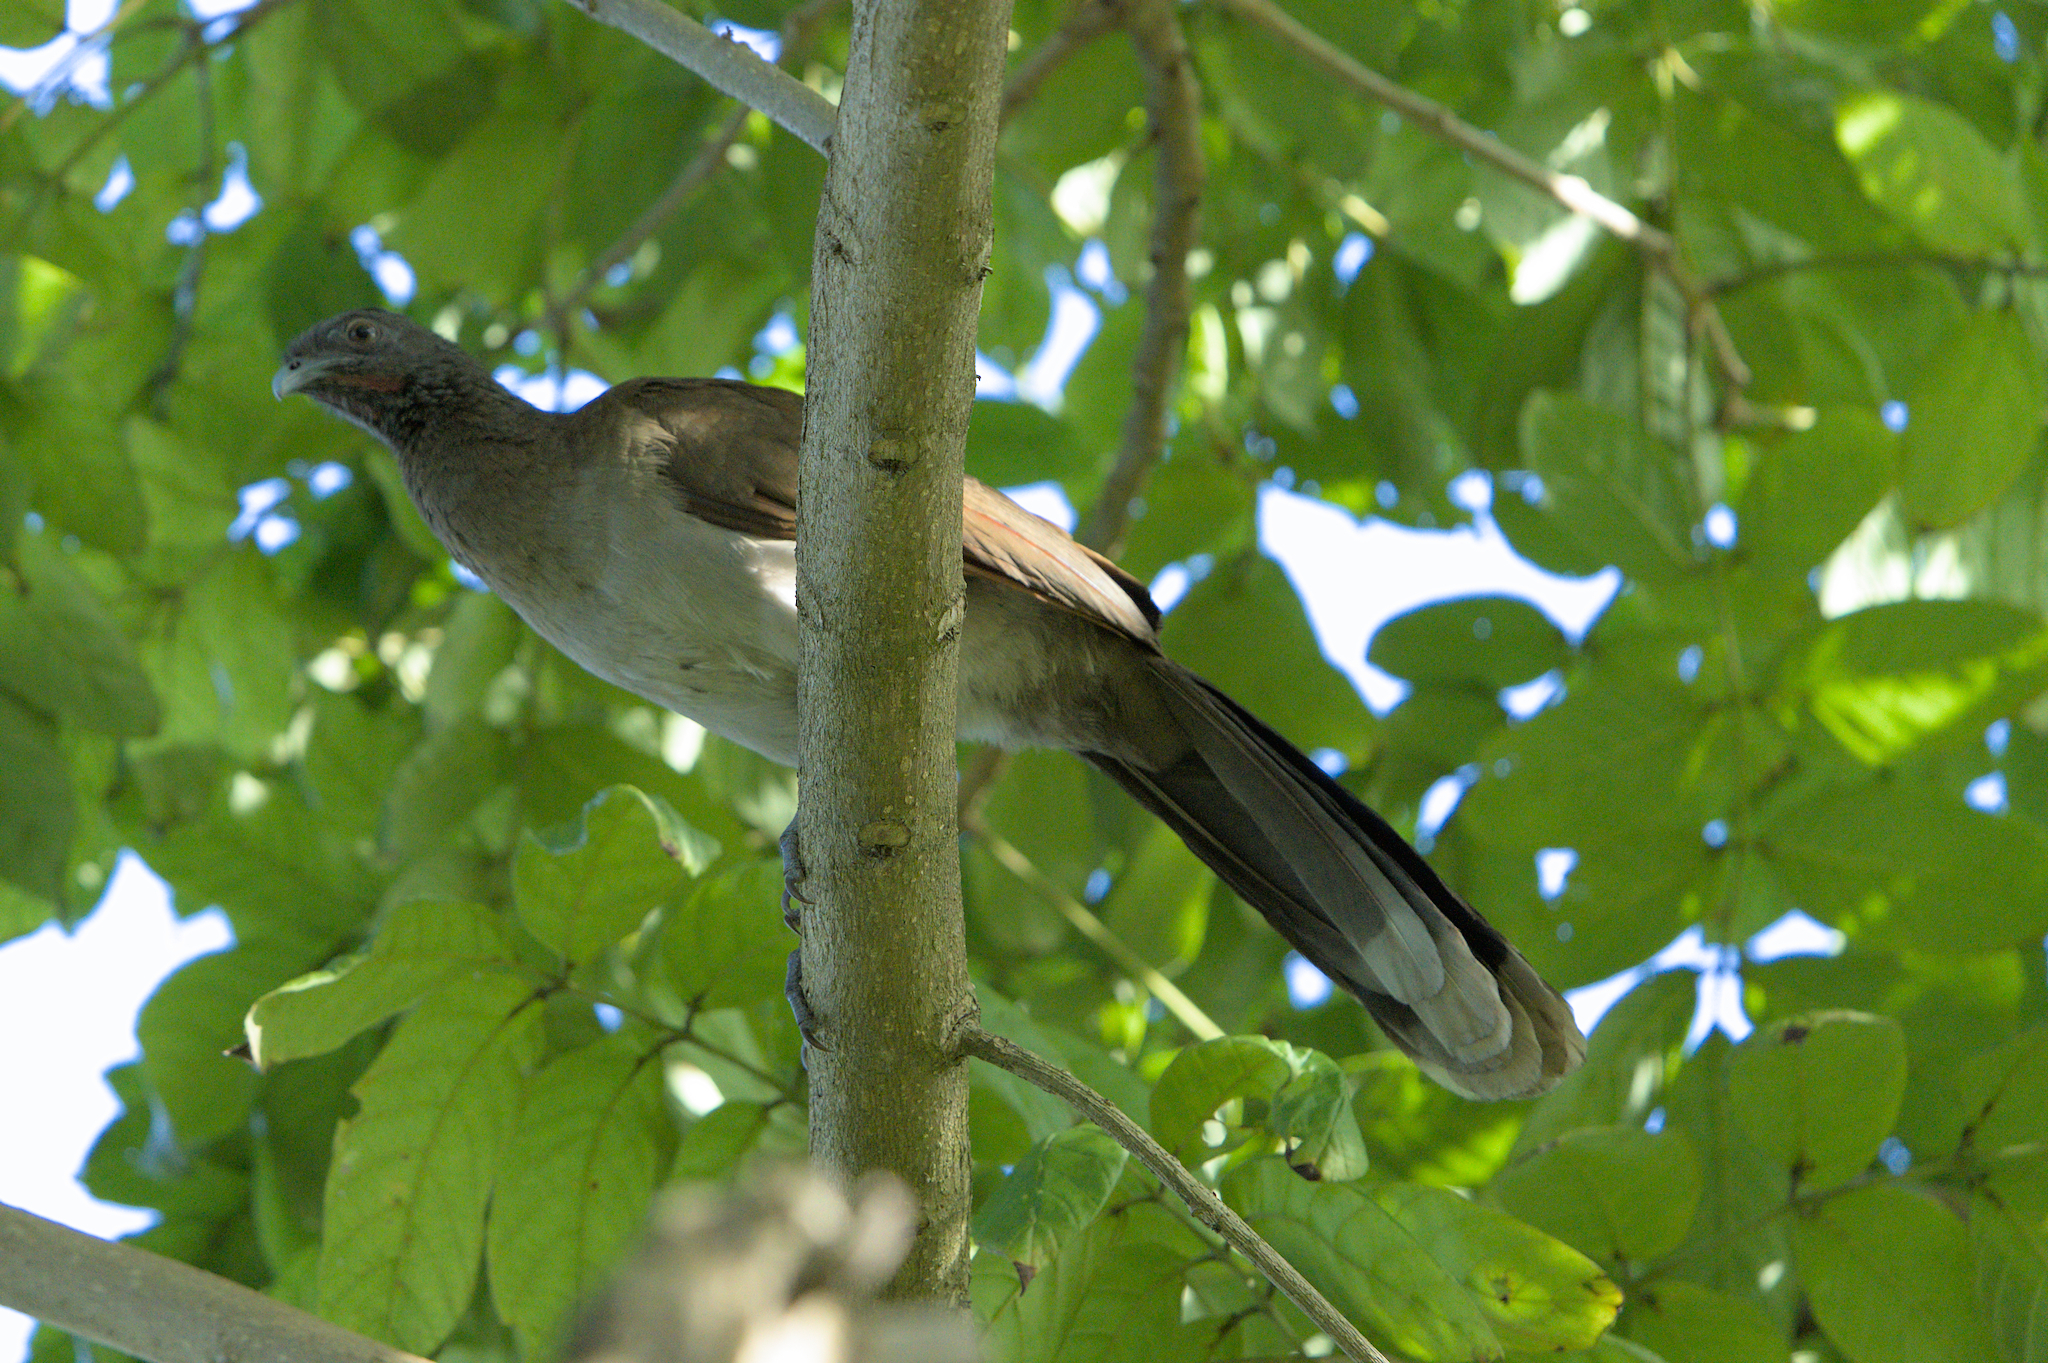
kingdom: Animalia
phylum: Chordata
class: Aves
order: Galliformes
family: Cracidae
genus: Ortalis
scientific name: Ortalis cinereiceps
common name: Grey-headed chachalaca
